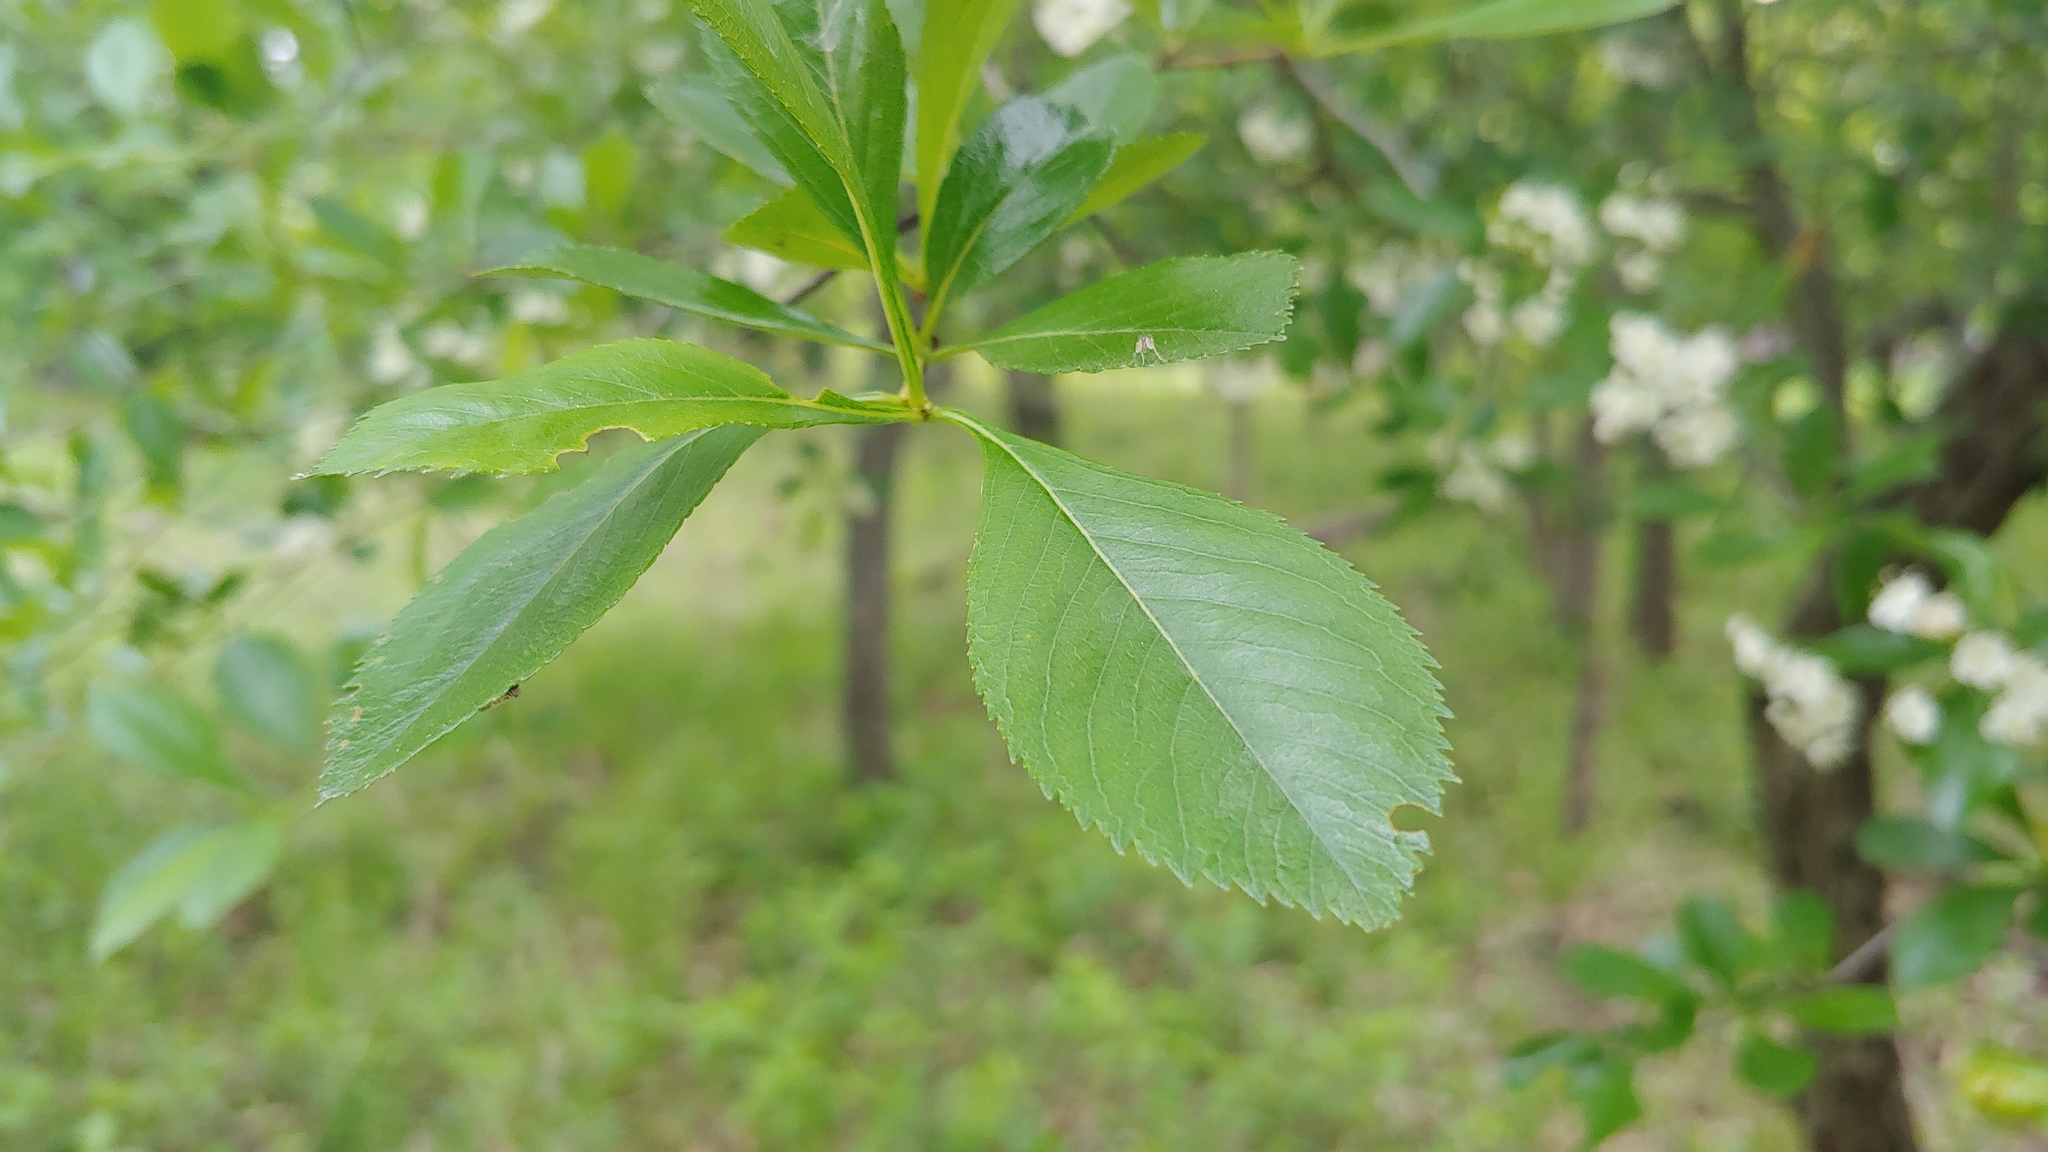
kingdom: Plantae
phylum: Tracheophyta
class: Magnoliopsida
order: Rosales
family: Rosaceae
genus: Crataegus
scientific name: Crataegus crus-galli
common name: Cockspurthorn
